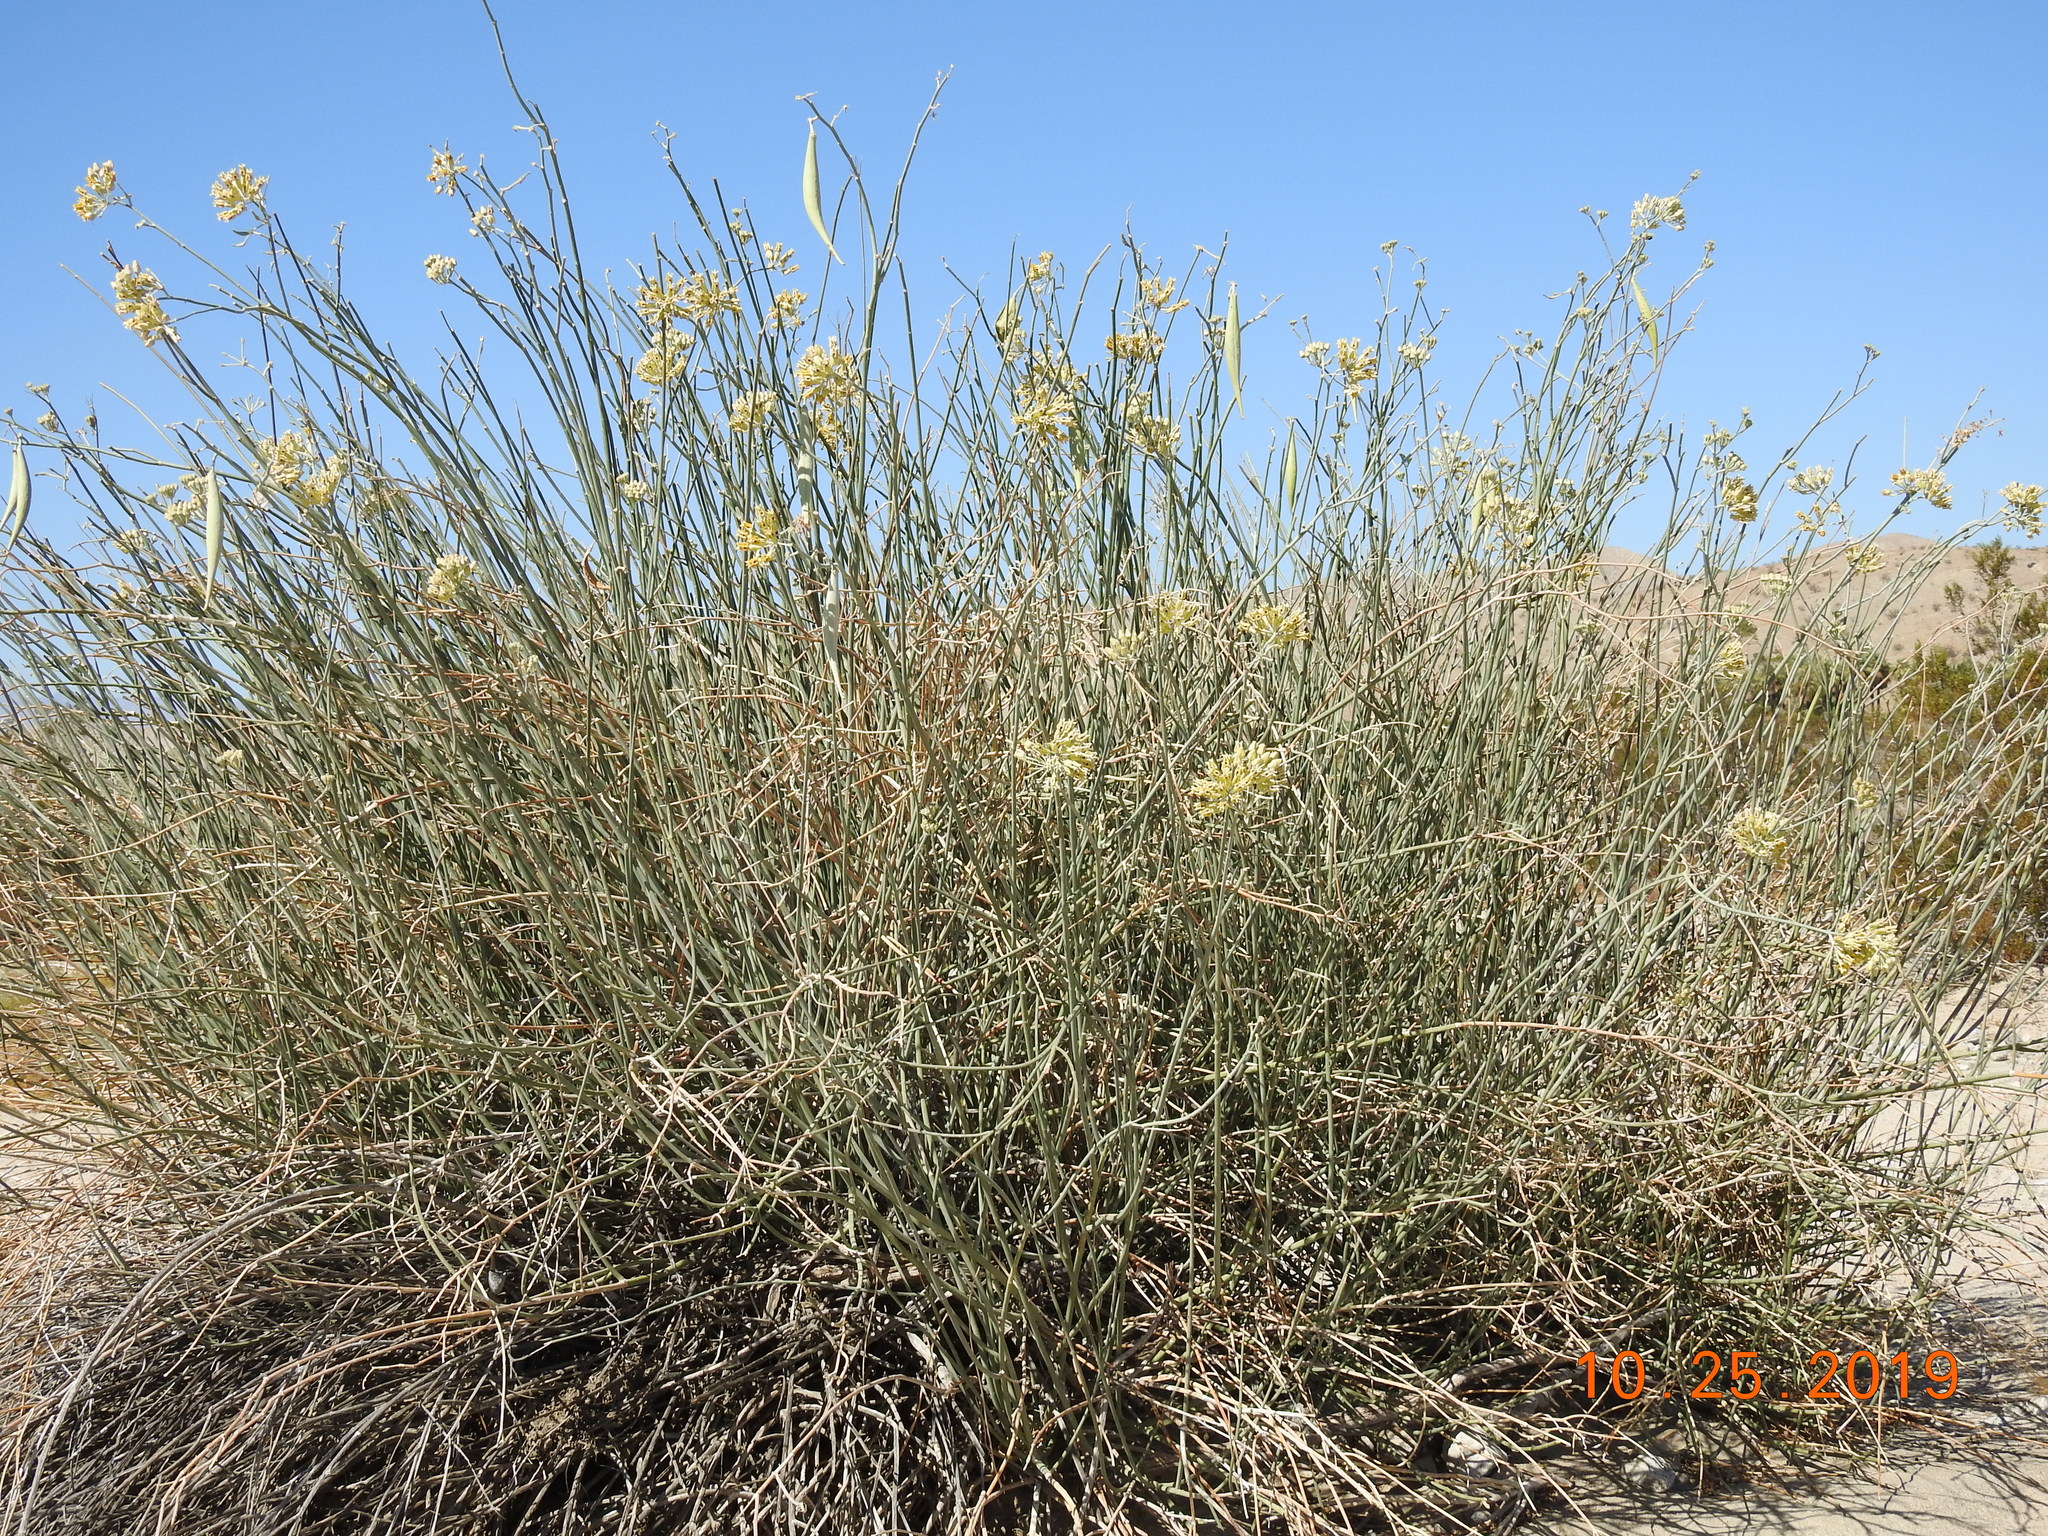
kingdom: Plantae
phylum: Tracheophyta
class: Magnoliopsida
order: Gentianales
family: Apocynaceae
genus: Asclepias
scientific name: Asclepias subulata
